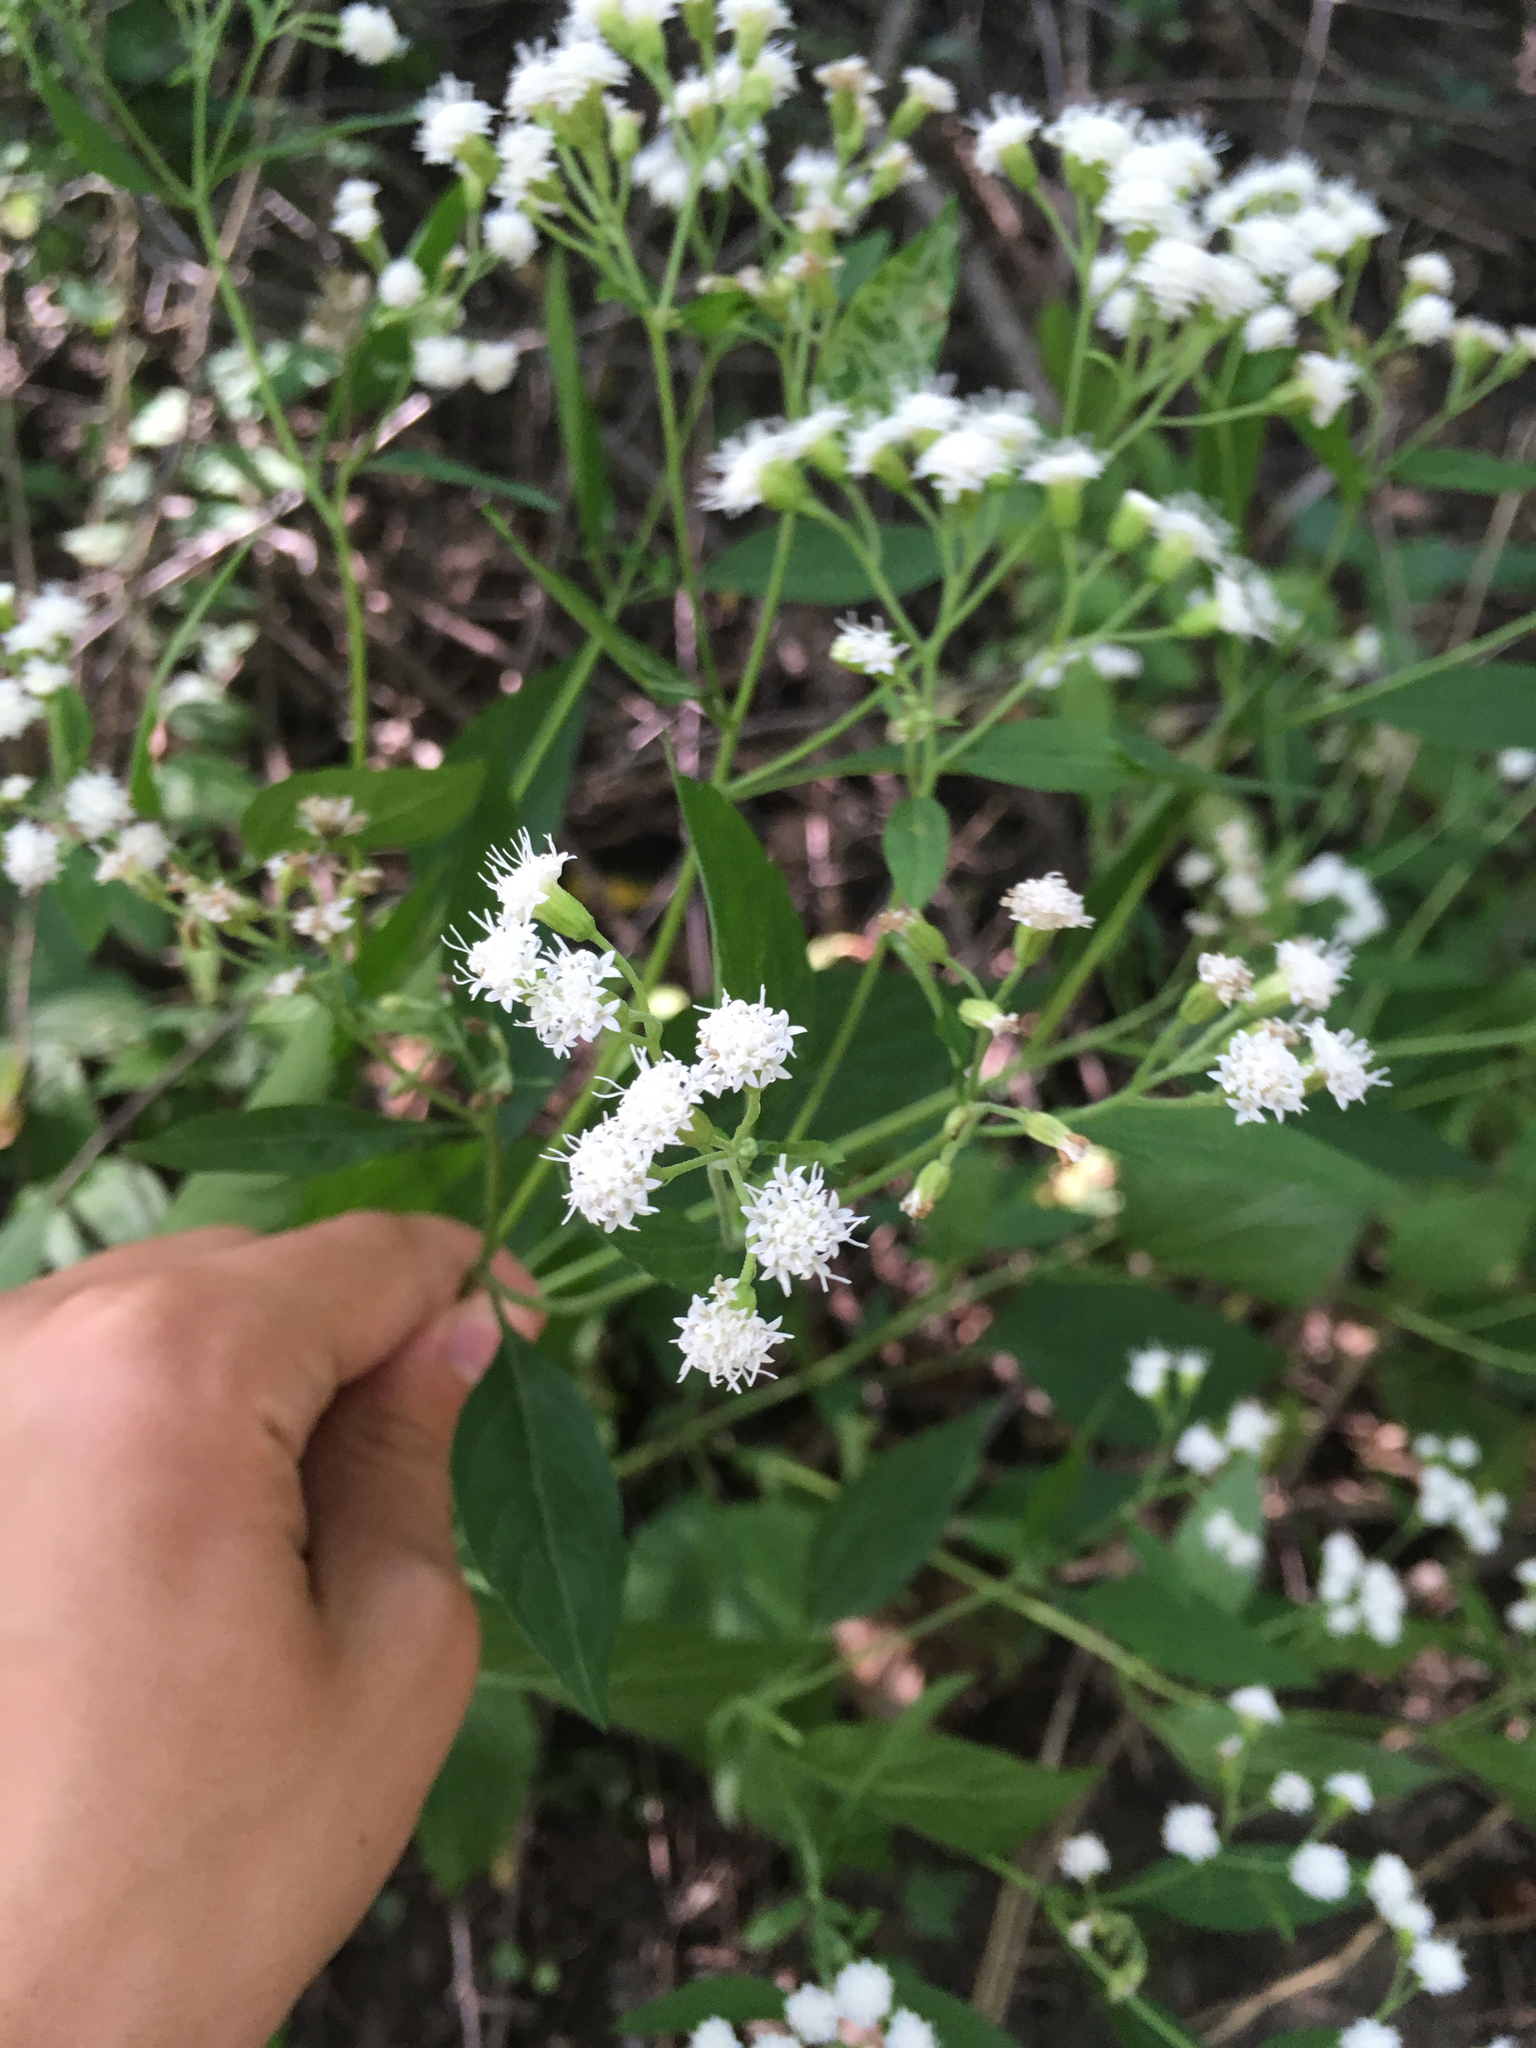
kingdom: Plantae
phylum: Tracheophyta
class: Magnoliopsida
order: Asterales
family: Asteraceae
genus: Ageratina
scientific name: Ageratina altissima
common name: White snakeroot
